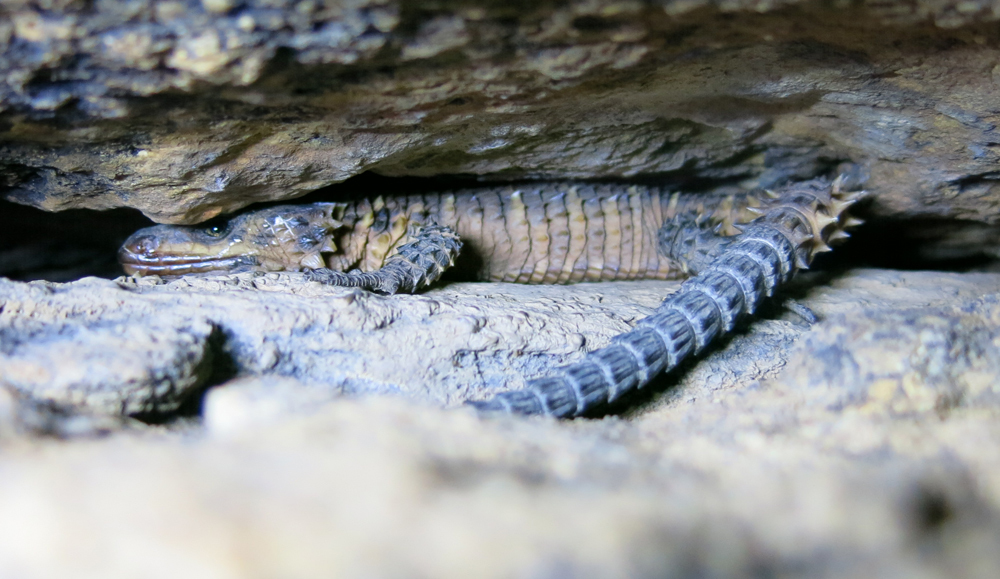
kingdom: Animalia
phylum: Chordata
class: Squamata
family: Cordylidae
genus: Smaug
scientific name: Smaug breyeri
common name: Waterberg dragon lizard
